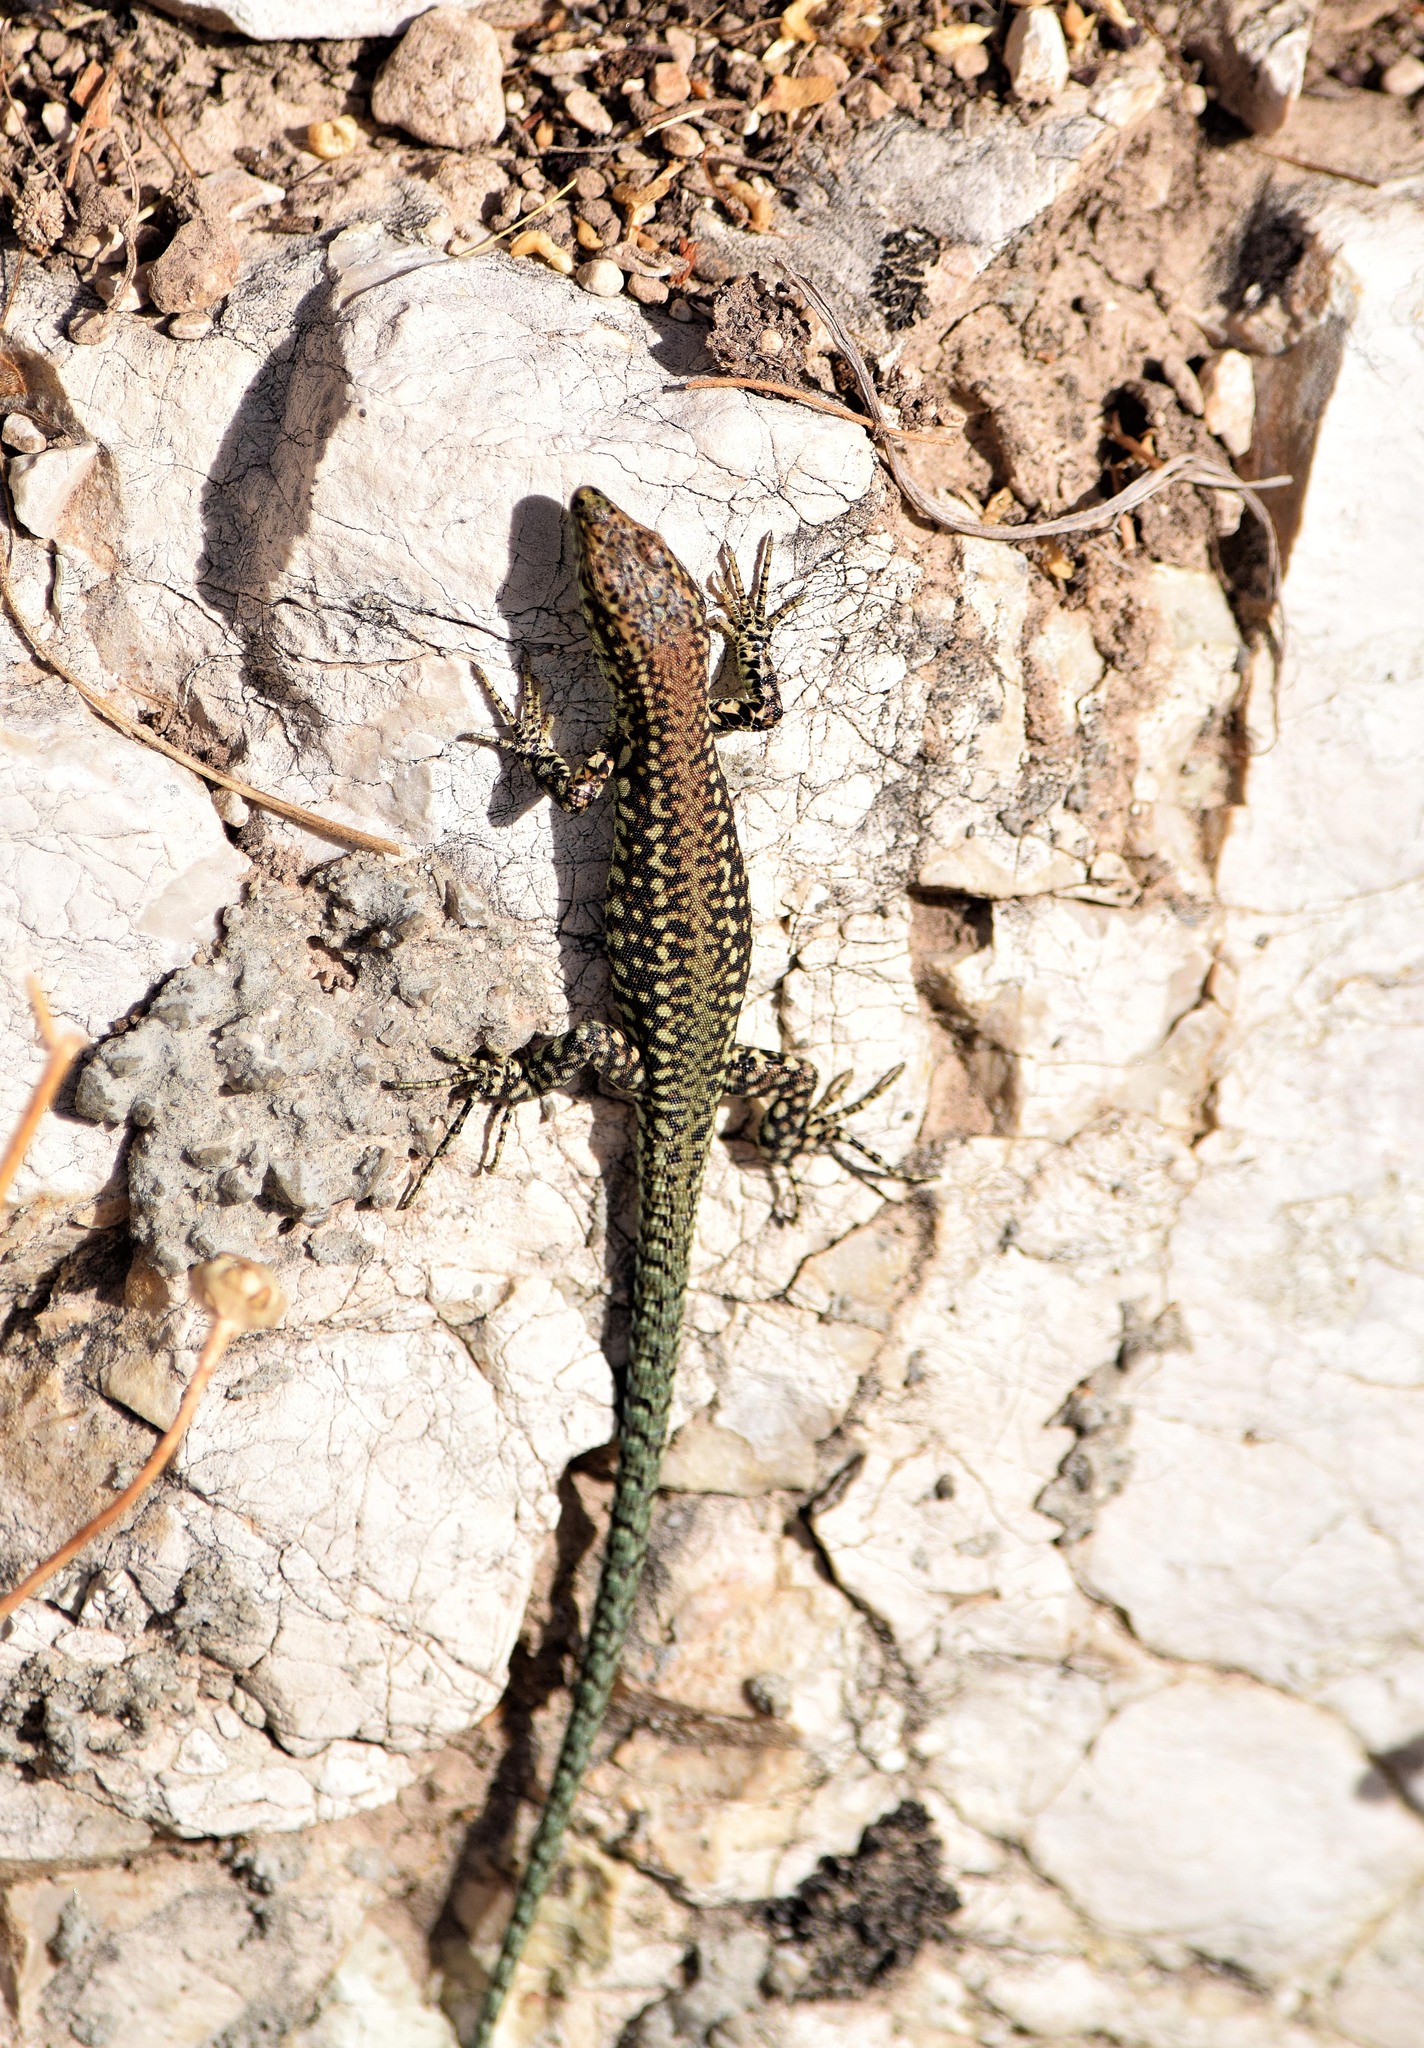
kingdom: Animalia
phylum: Chordata
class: Squamata
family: Lacertidae
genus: Podarcis
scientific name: Podarcis vaucheri
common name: Vaucher's wall lizard
